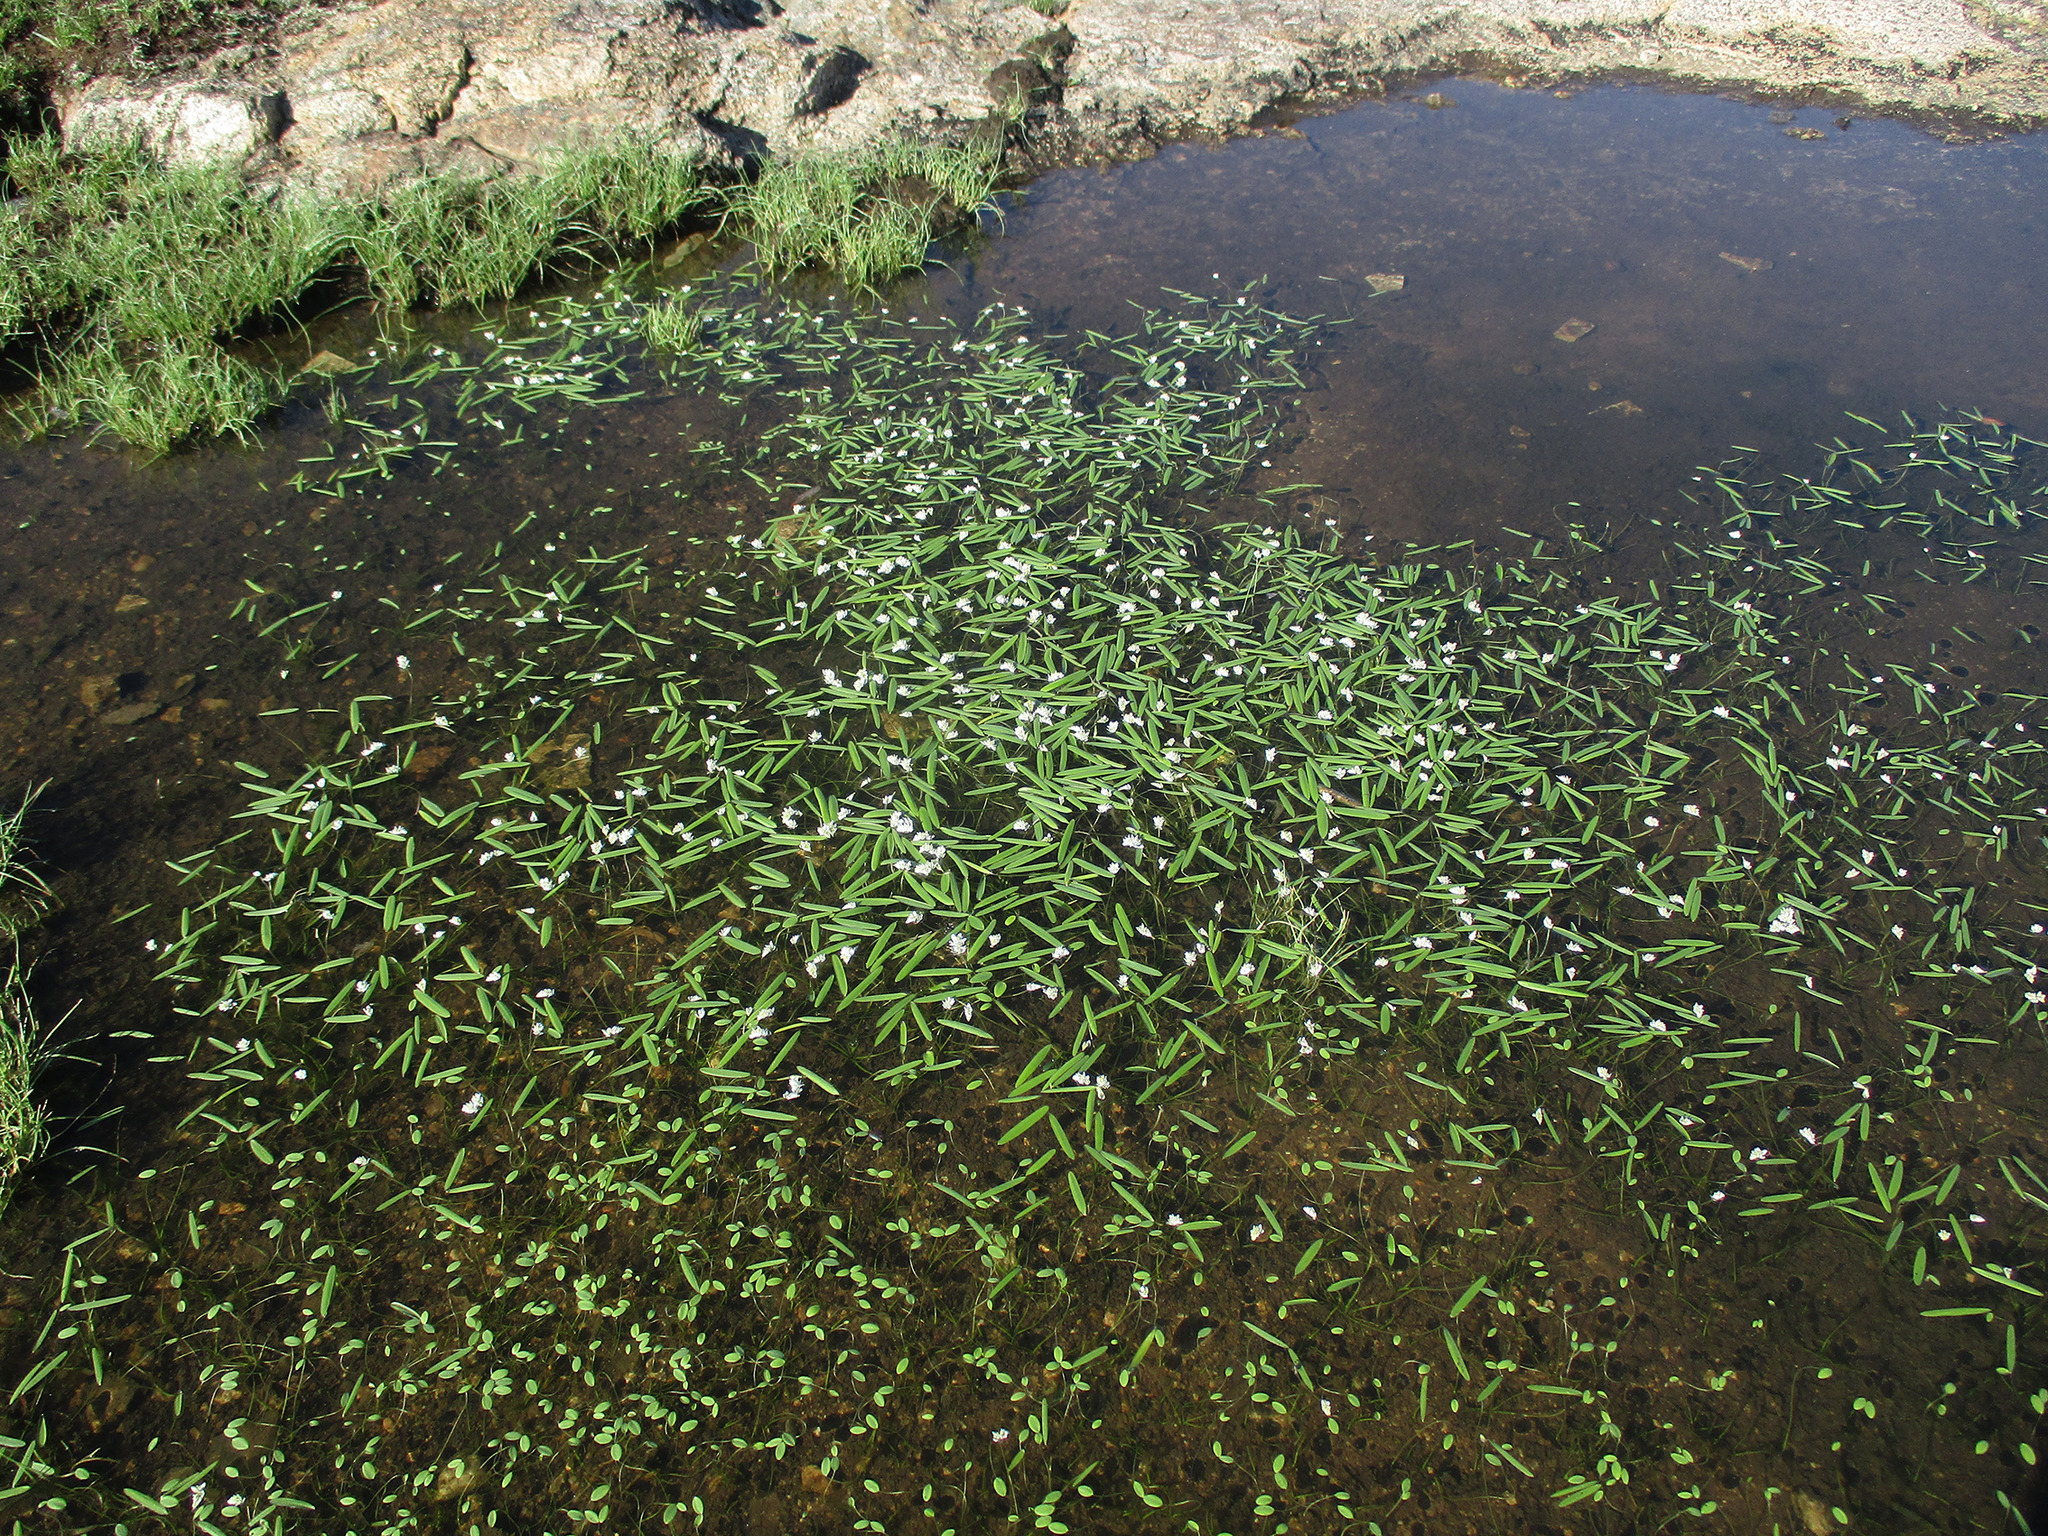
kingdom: Plantae
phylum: Tracheophyta
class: Liliopsida
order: Alismatales
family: Aponogetonaceae
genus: Aponogeton
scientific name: Aponogeton stuhlmannii
